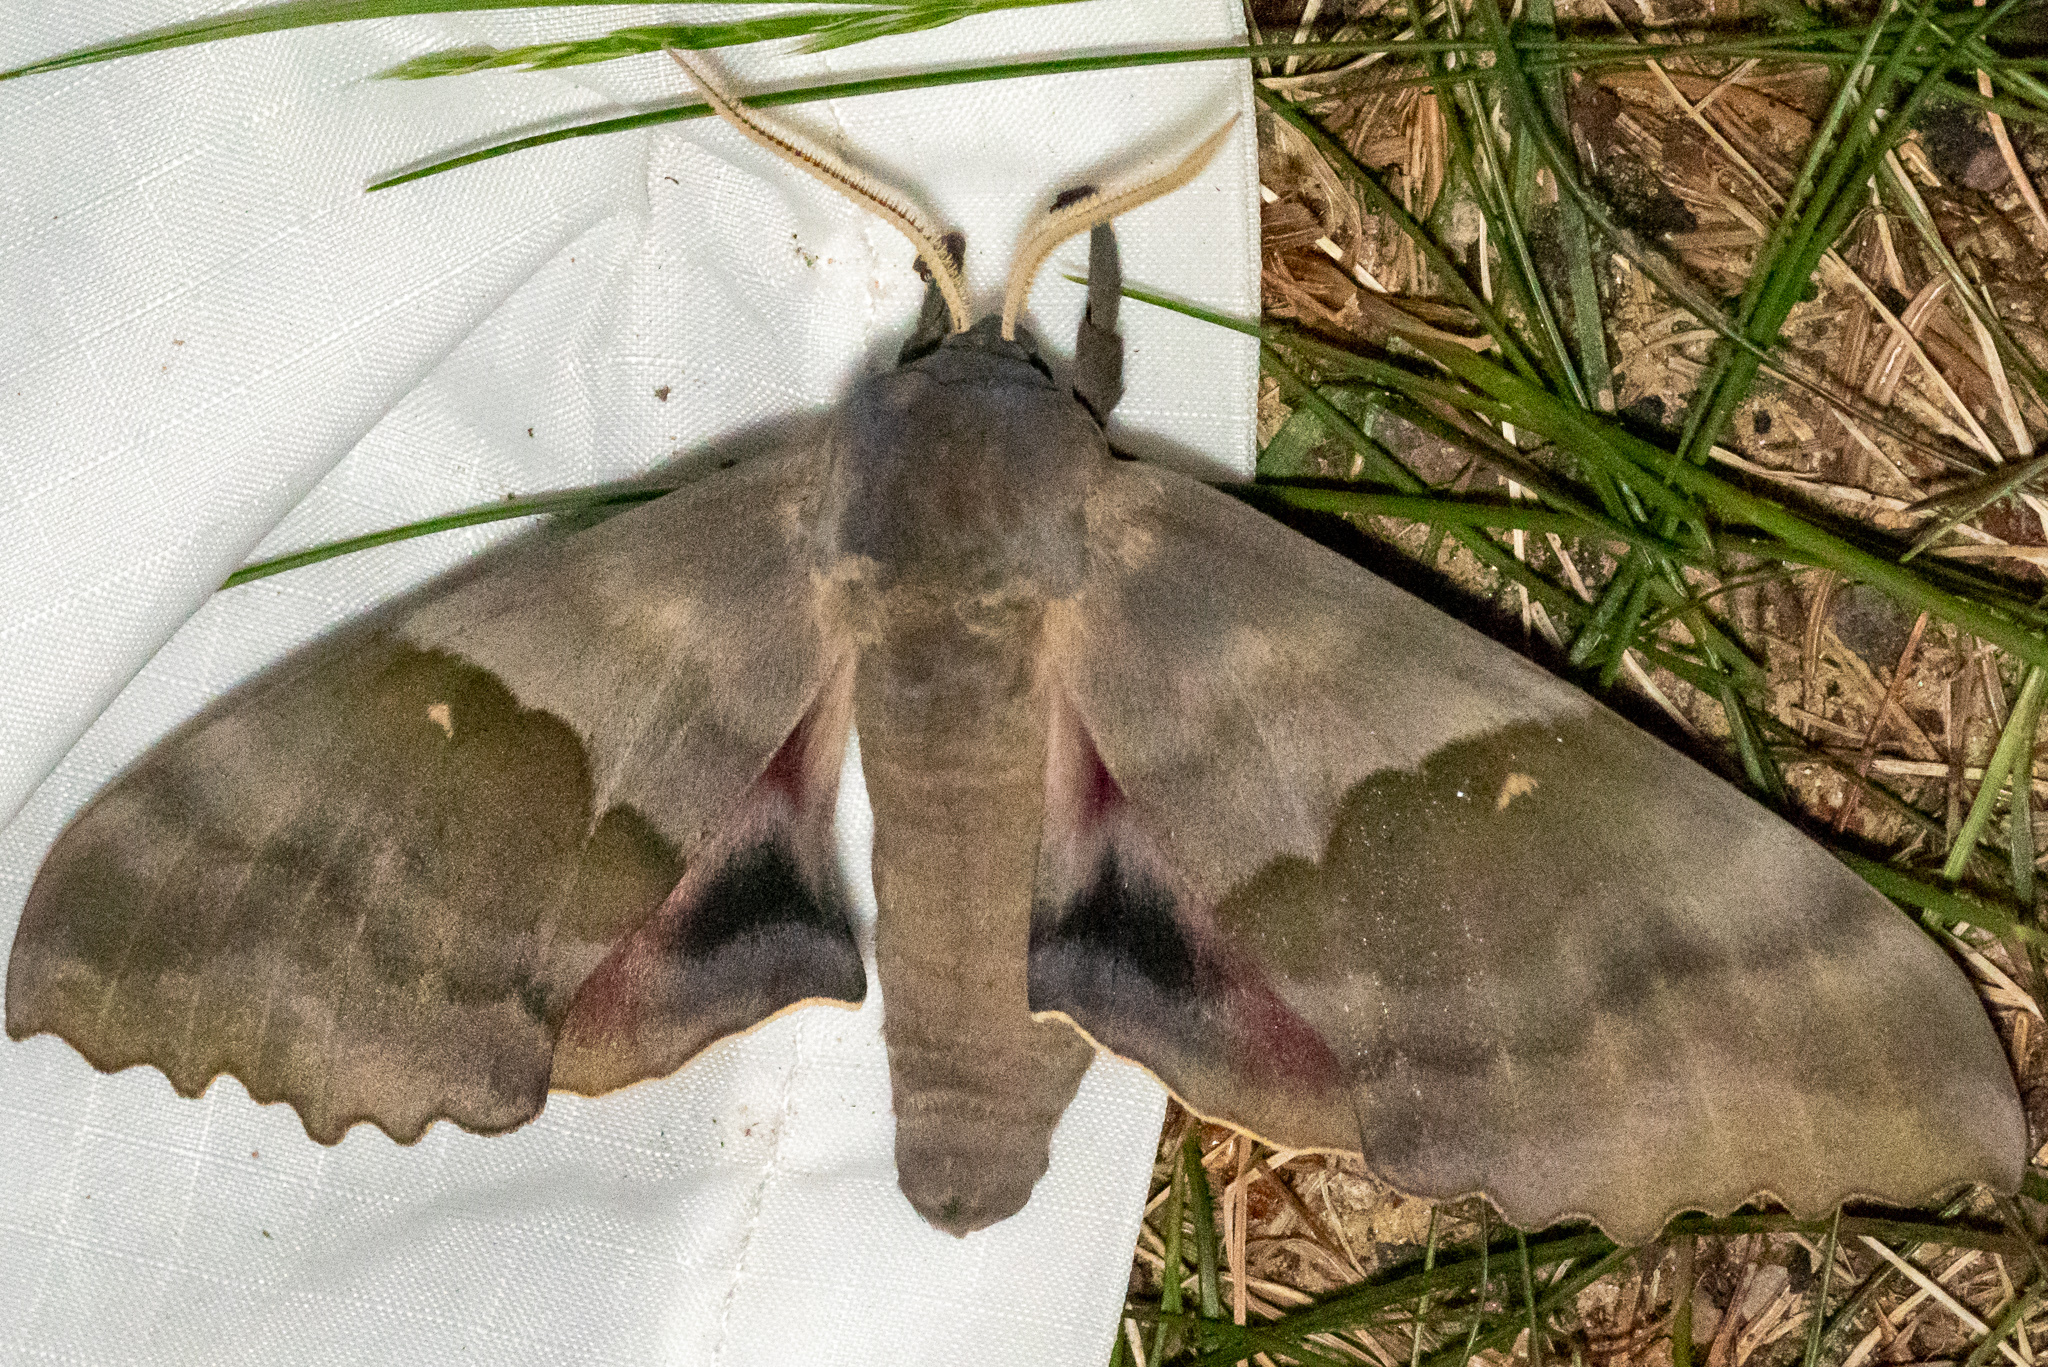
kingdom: Animalia
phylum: Arthropoda
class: Insecta
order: Lepidoptera
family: Sphingidae
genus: Pachysphinx
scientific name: Pachysphinx modesta
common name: Big poplar sphinx
